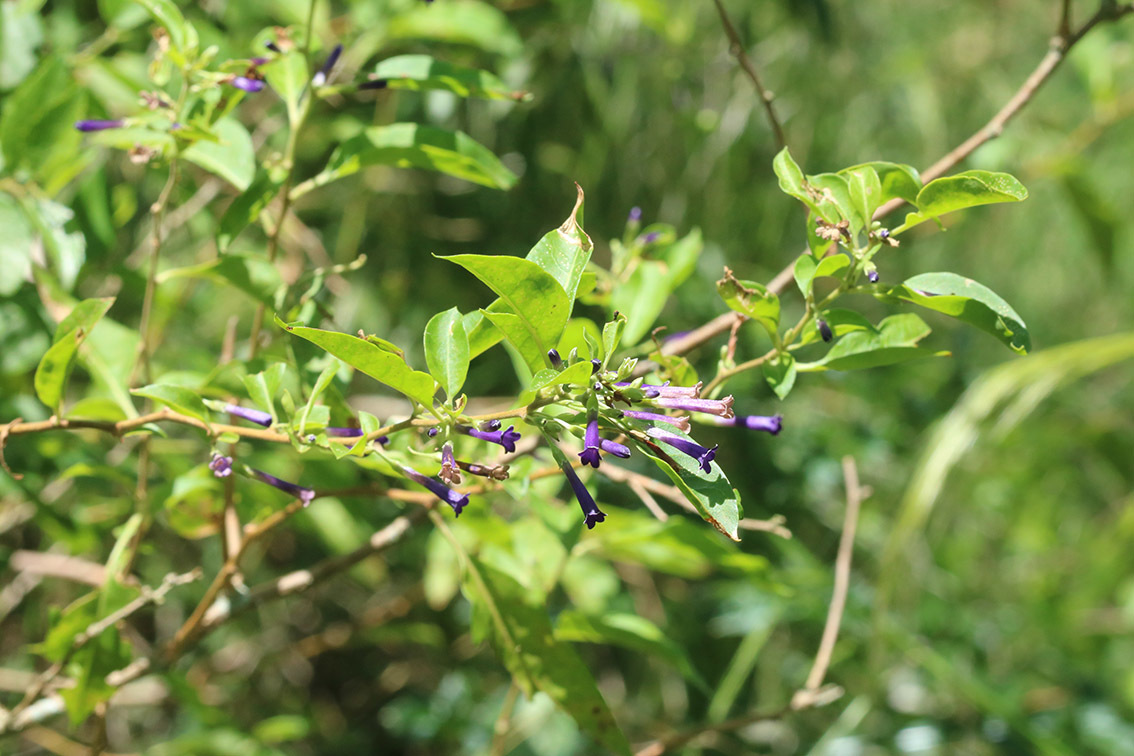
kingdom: Plantae
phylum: Tracheophyta
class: Magnoliopsida
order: Solanales
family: Solanaceae
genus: Lycium
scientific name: Lycium cestroides
